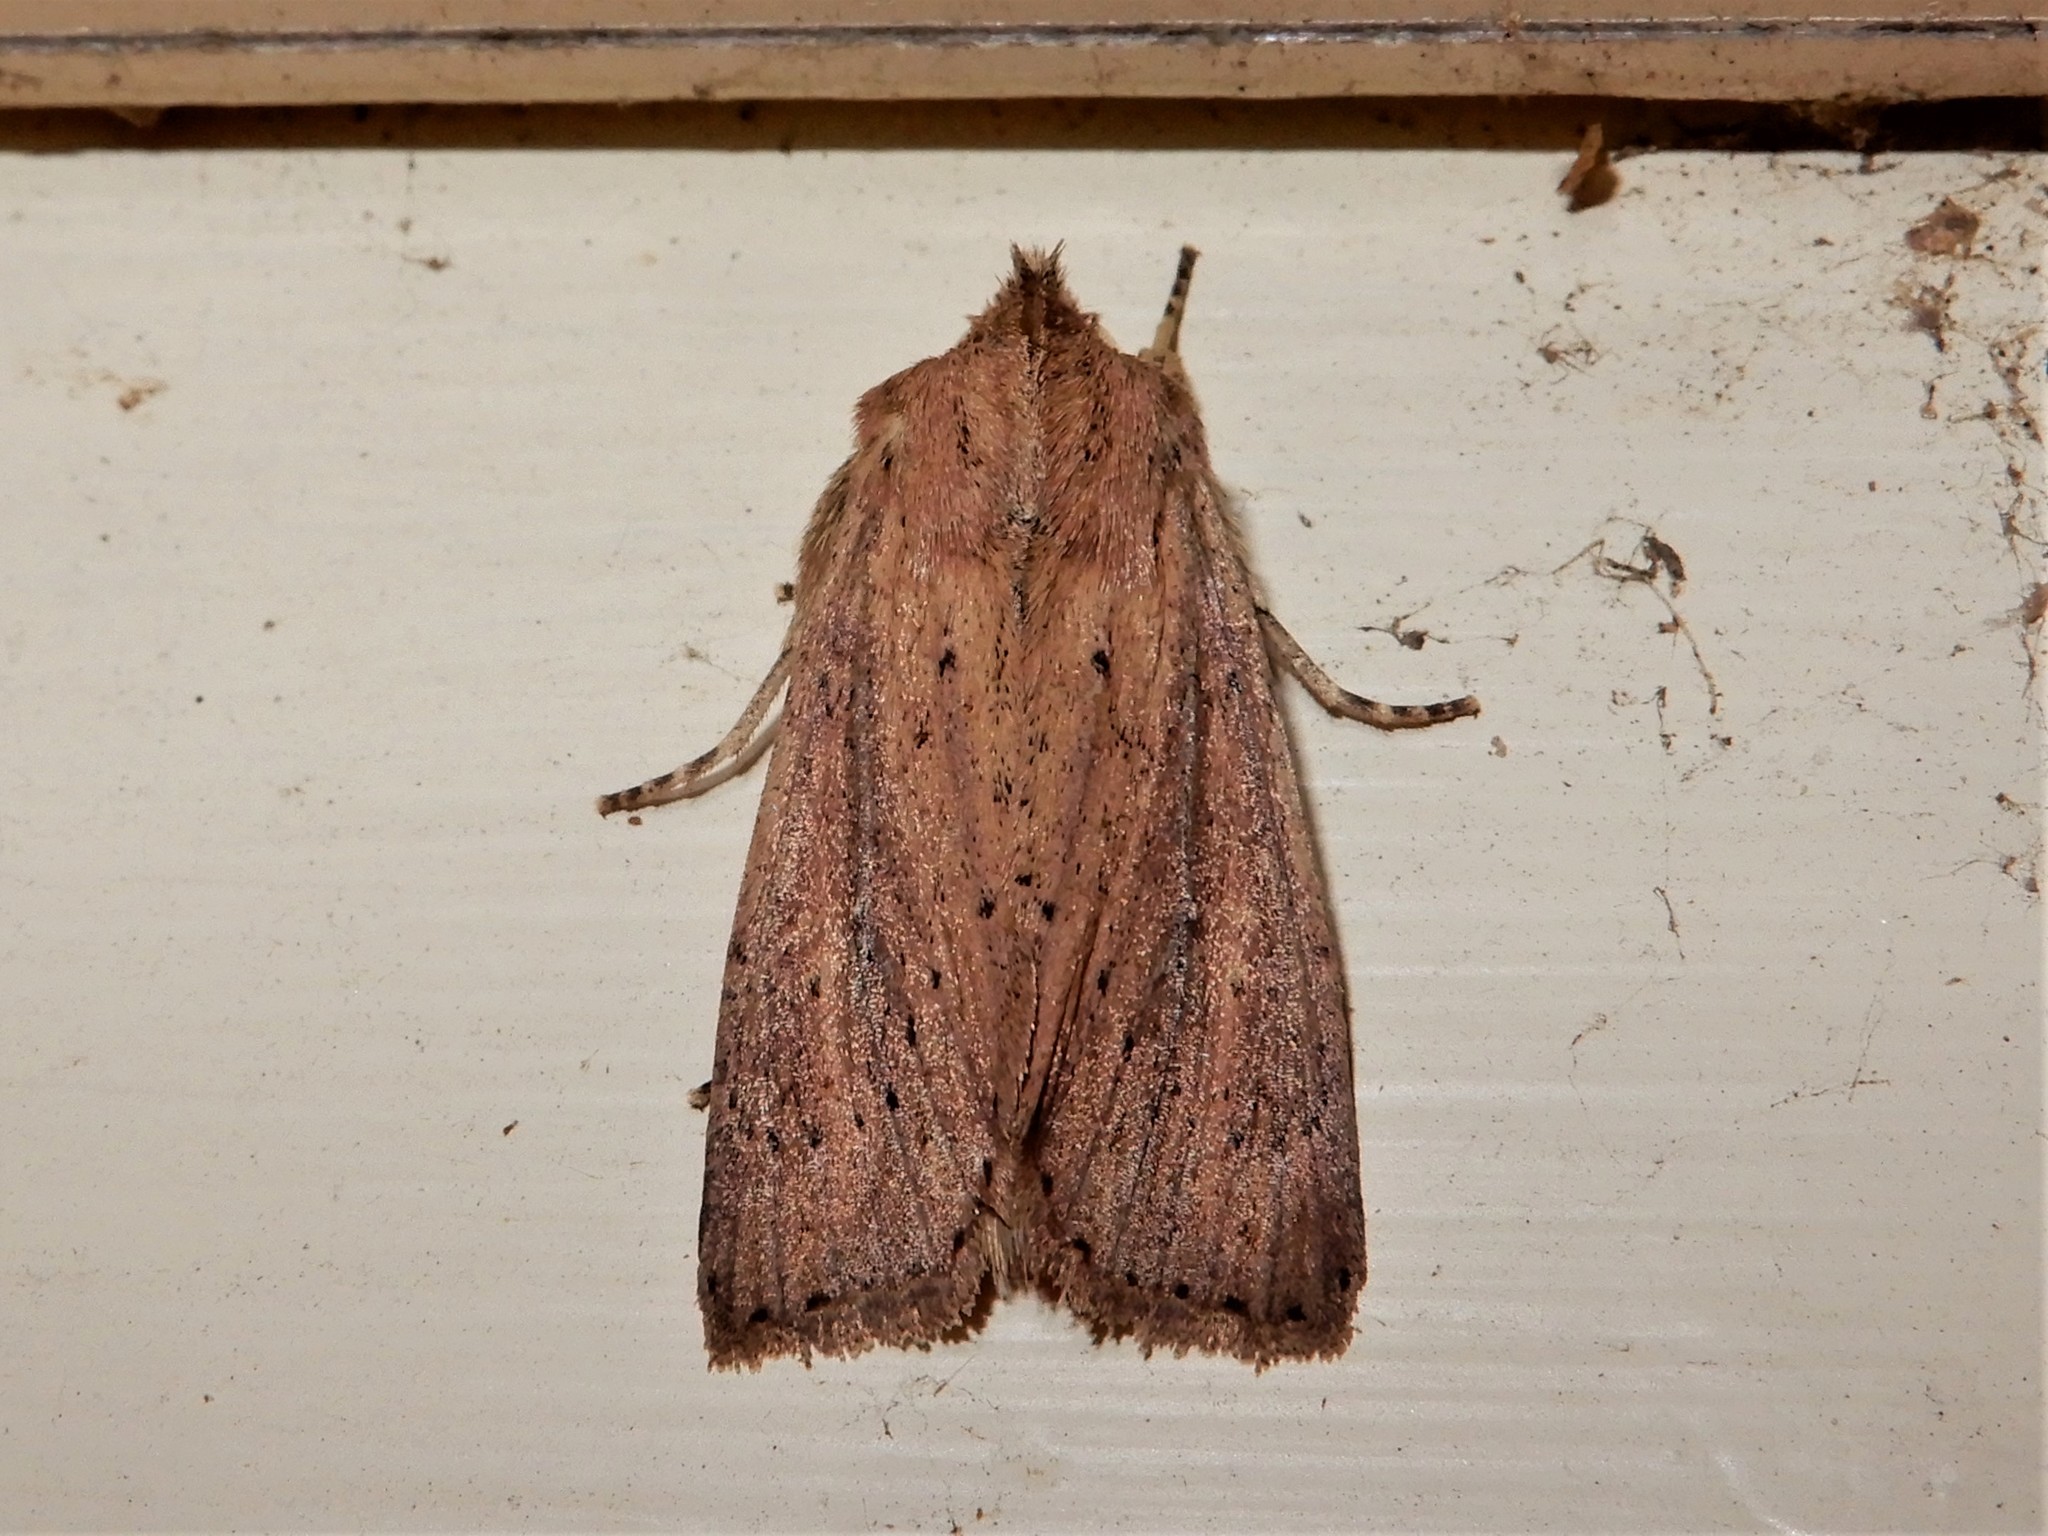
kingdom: Animalia
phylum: Arthropoda
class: Insecta
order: Lepidoptera
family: Noctuidae
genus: Ichneutica
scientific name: Ichneutica arotis
